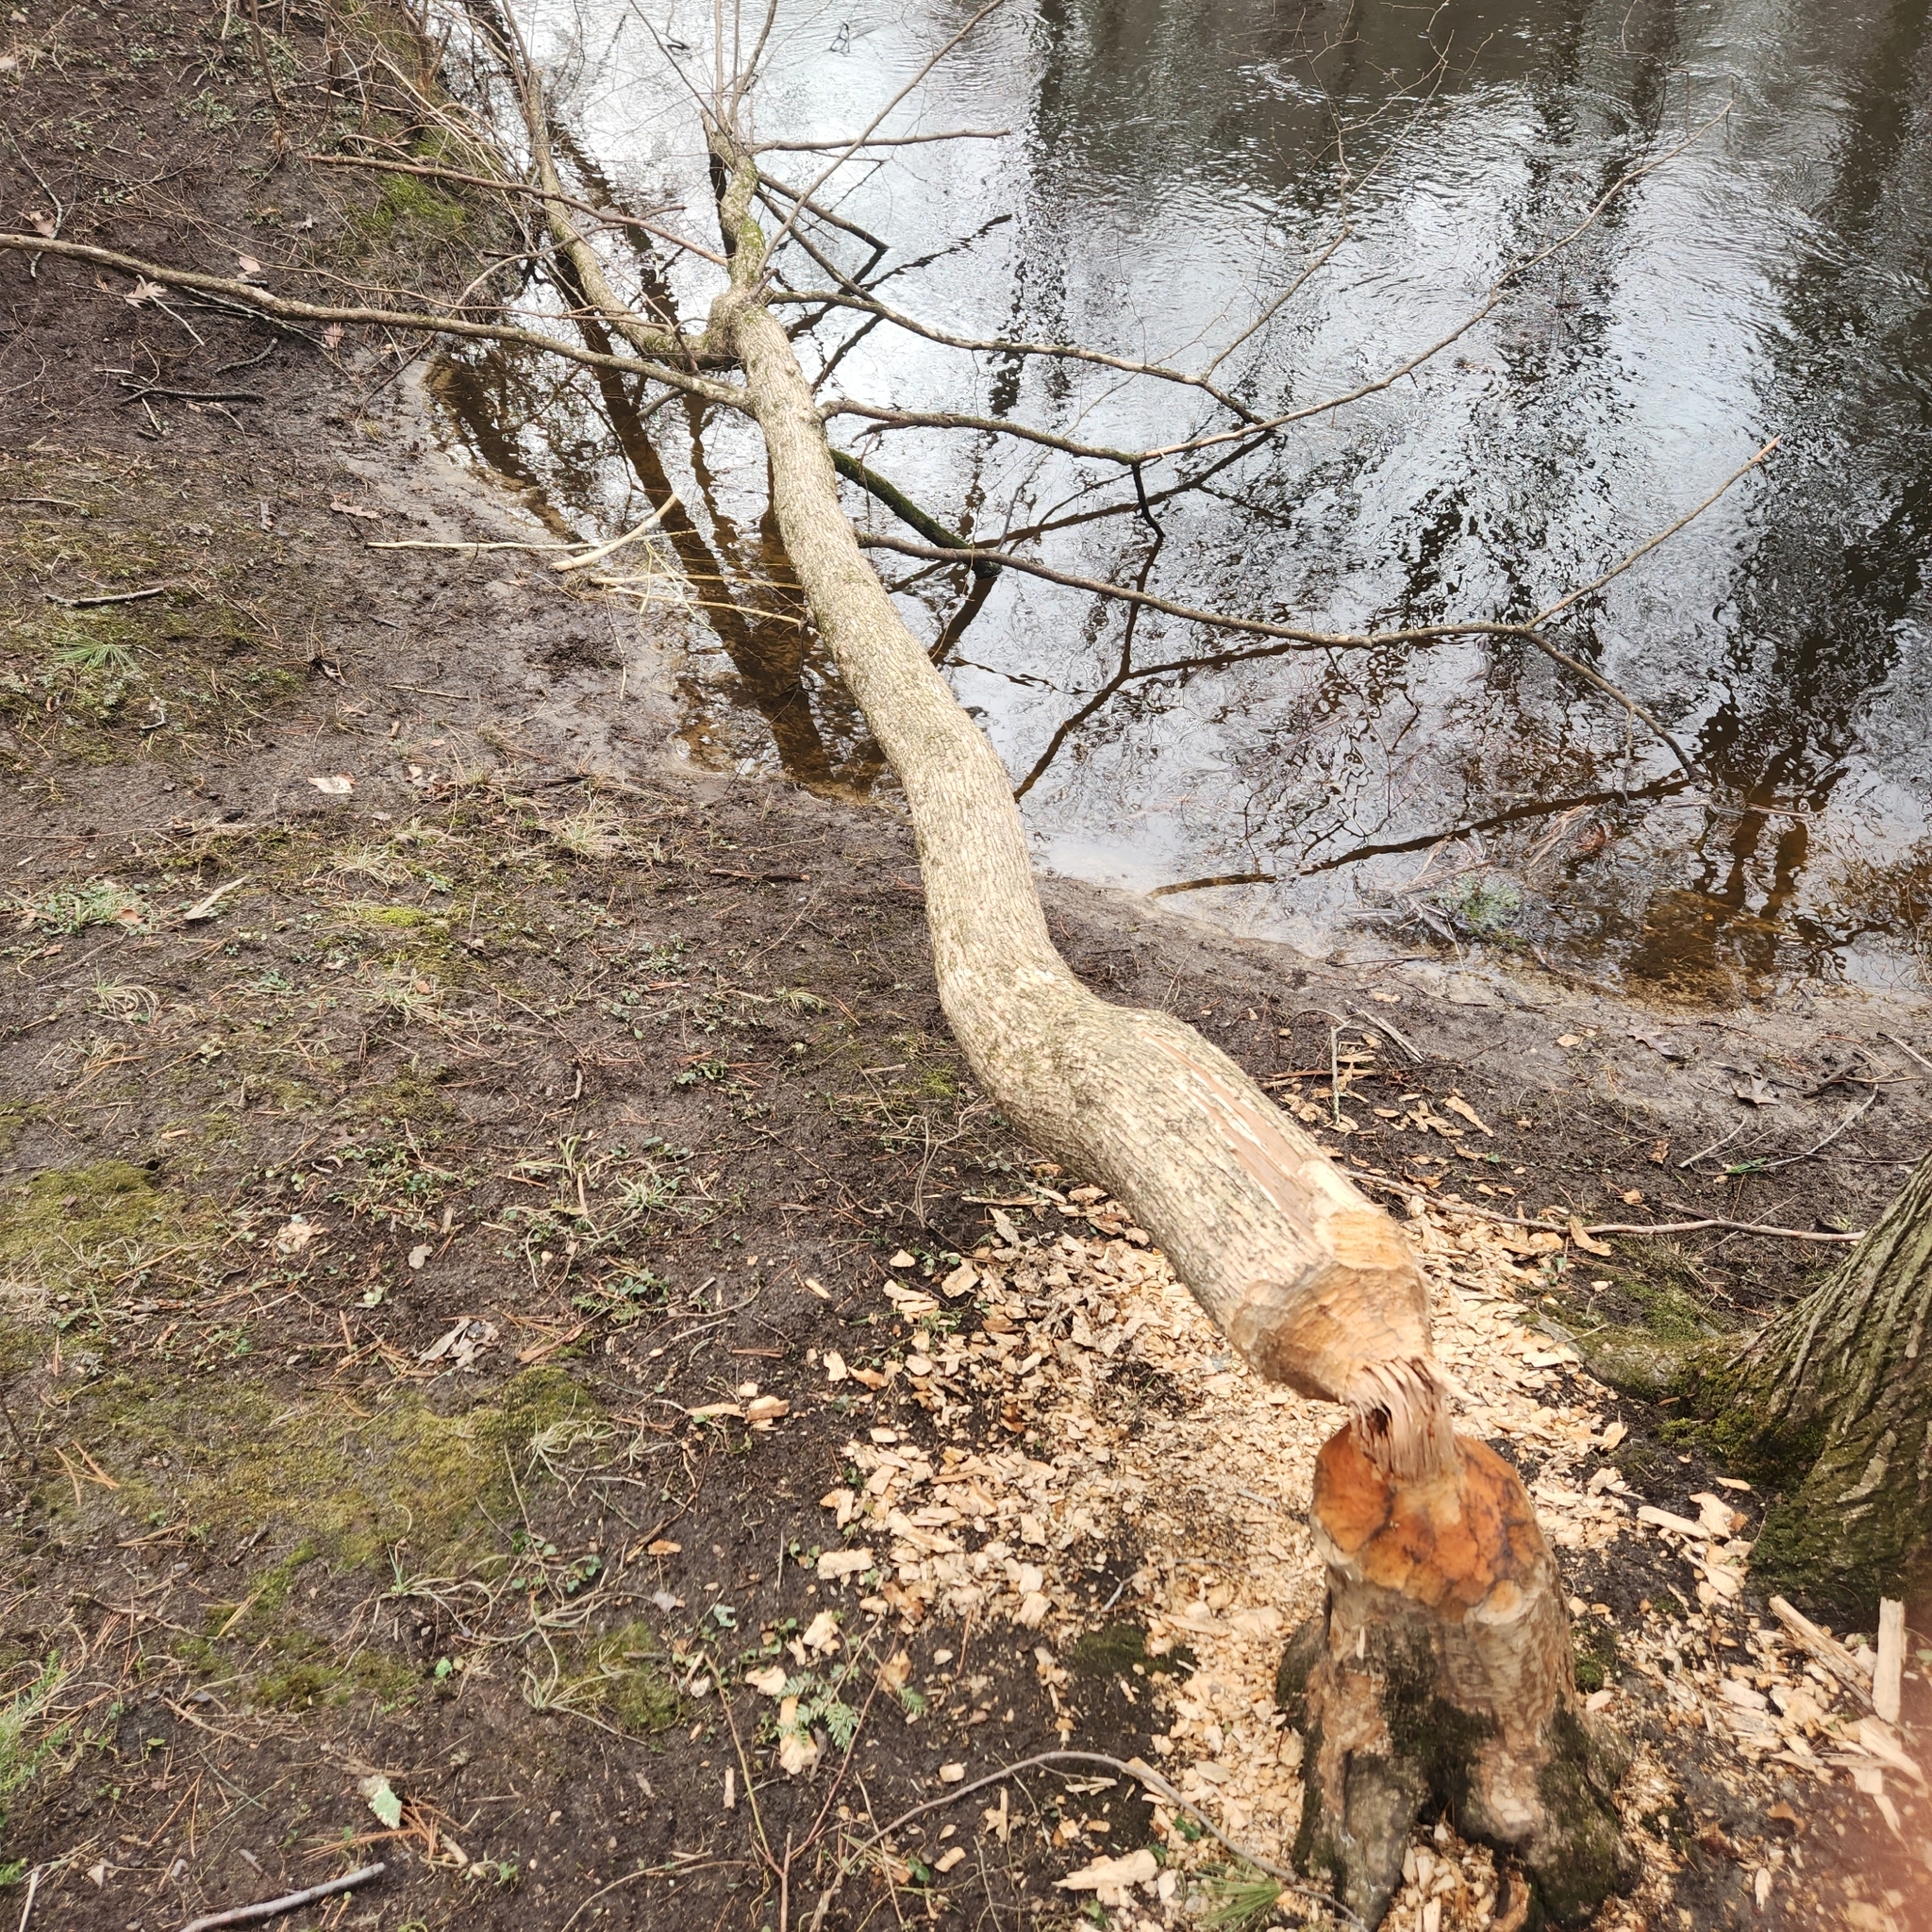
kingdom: Animalia
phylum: Chordata
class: Mammalia
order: Rodentia
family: Castoridae
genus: Castor
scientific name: Castor canadensis
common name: American beaver
